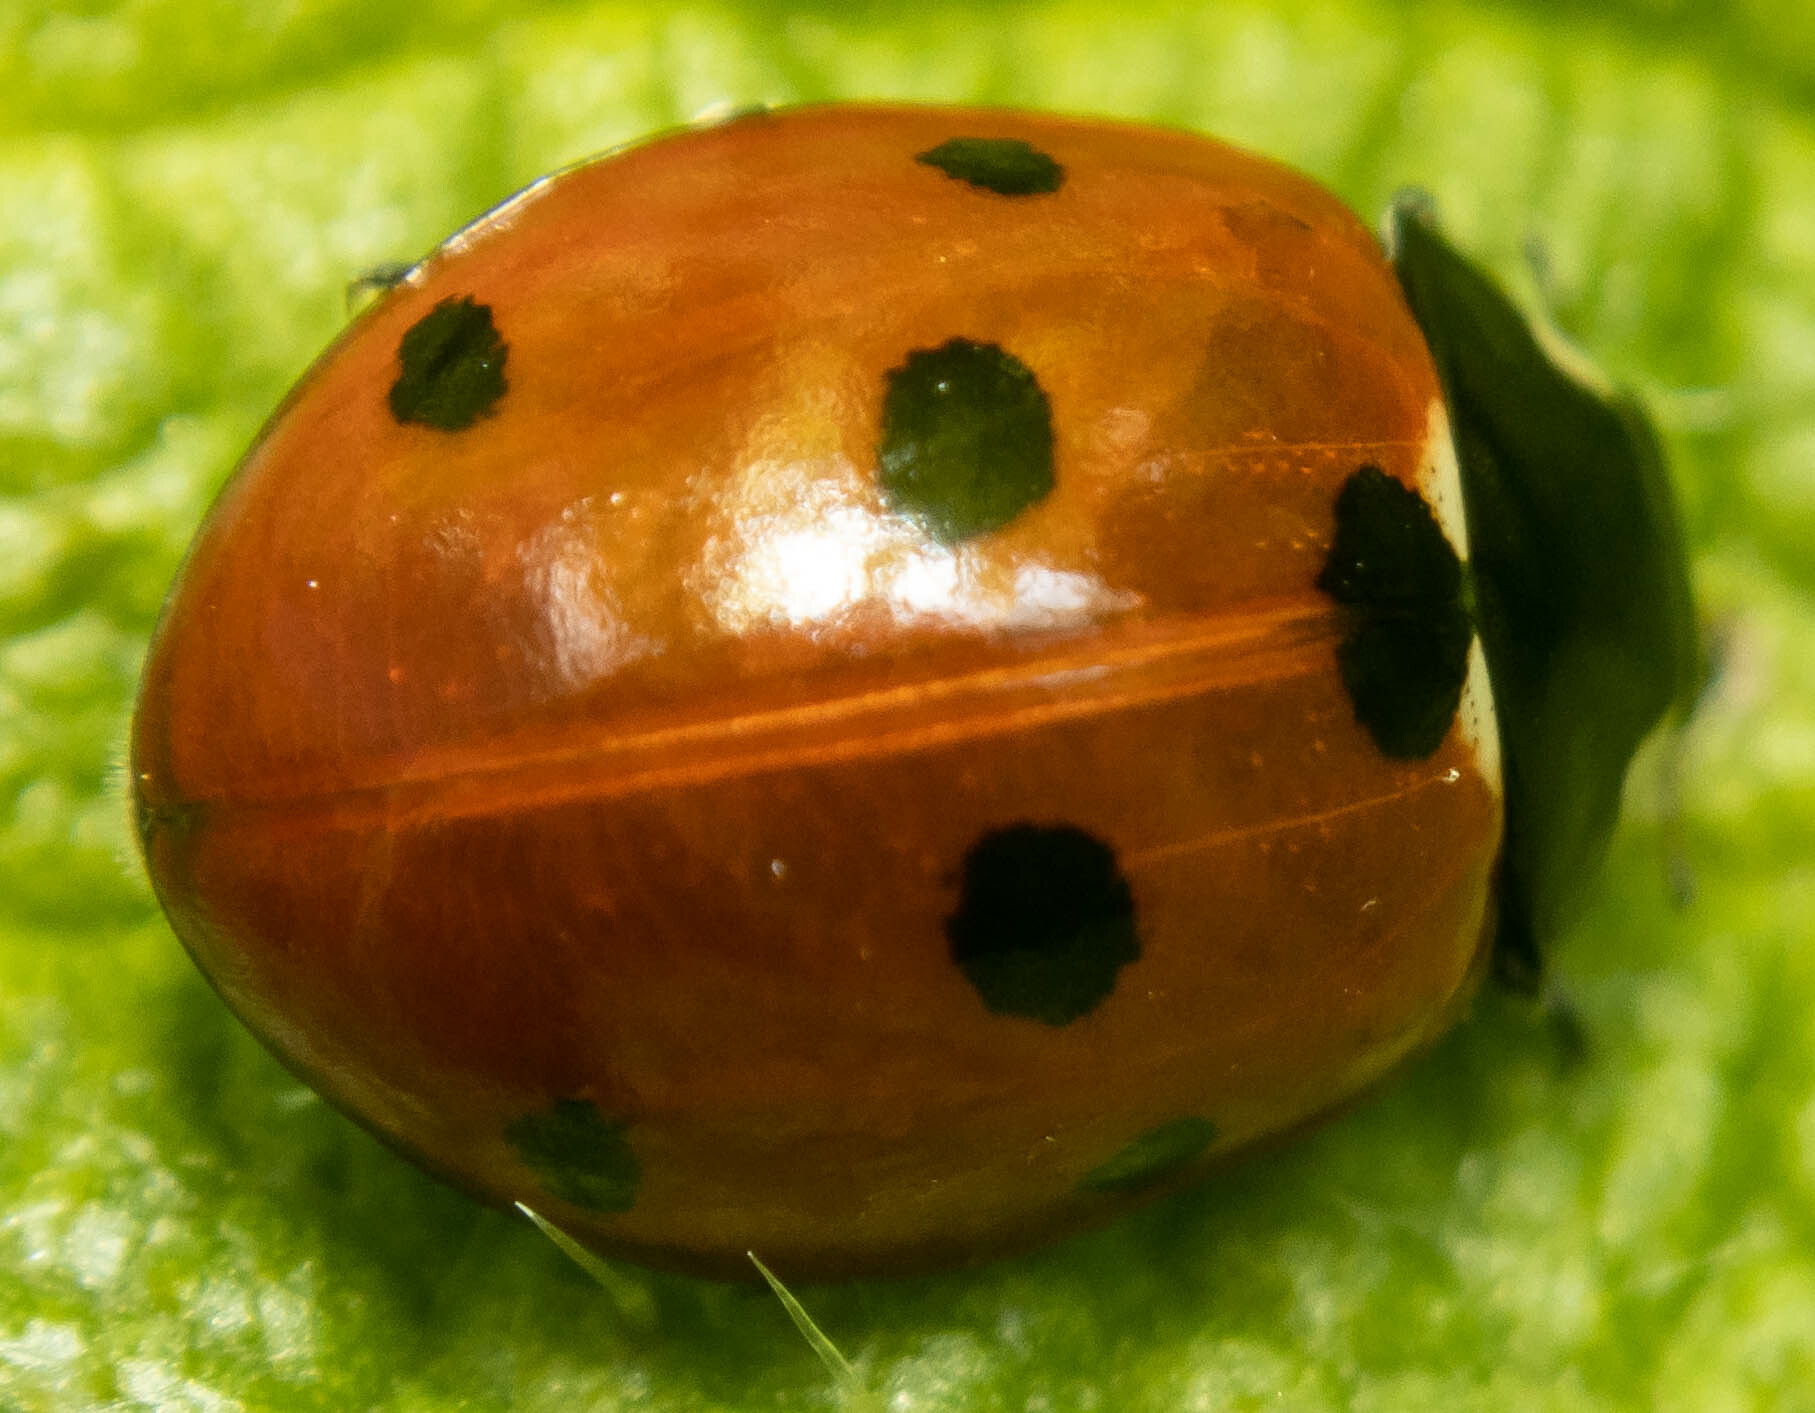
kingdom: Animalia
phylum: Arthropoda
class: Insecta
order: Coleoptera
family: Coccinellidae
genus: Coccinella
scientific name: Coccinella septempunctata
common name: Sevenspotted lady beetle
